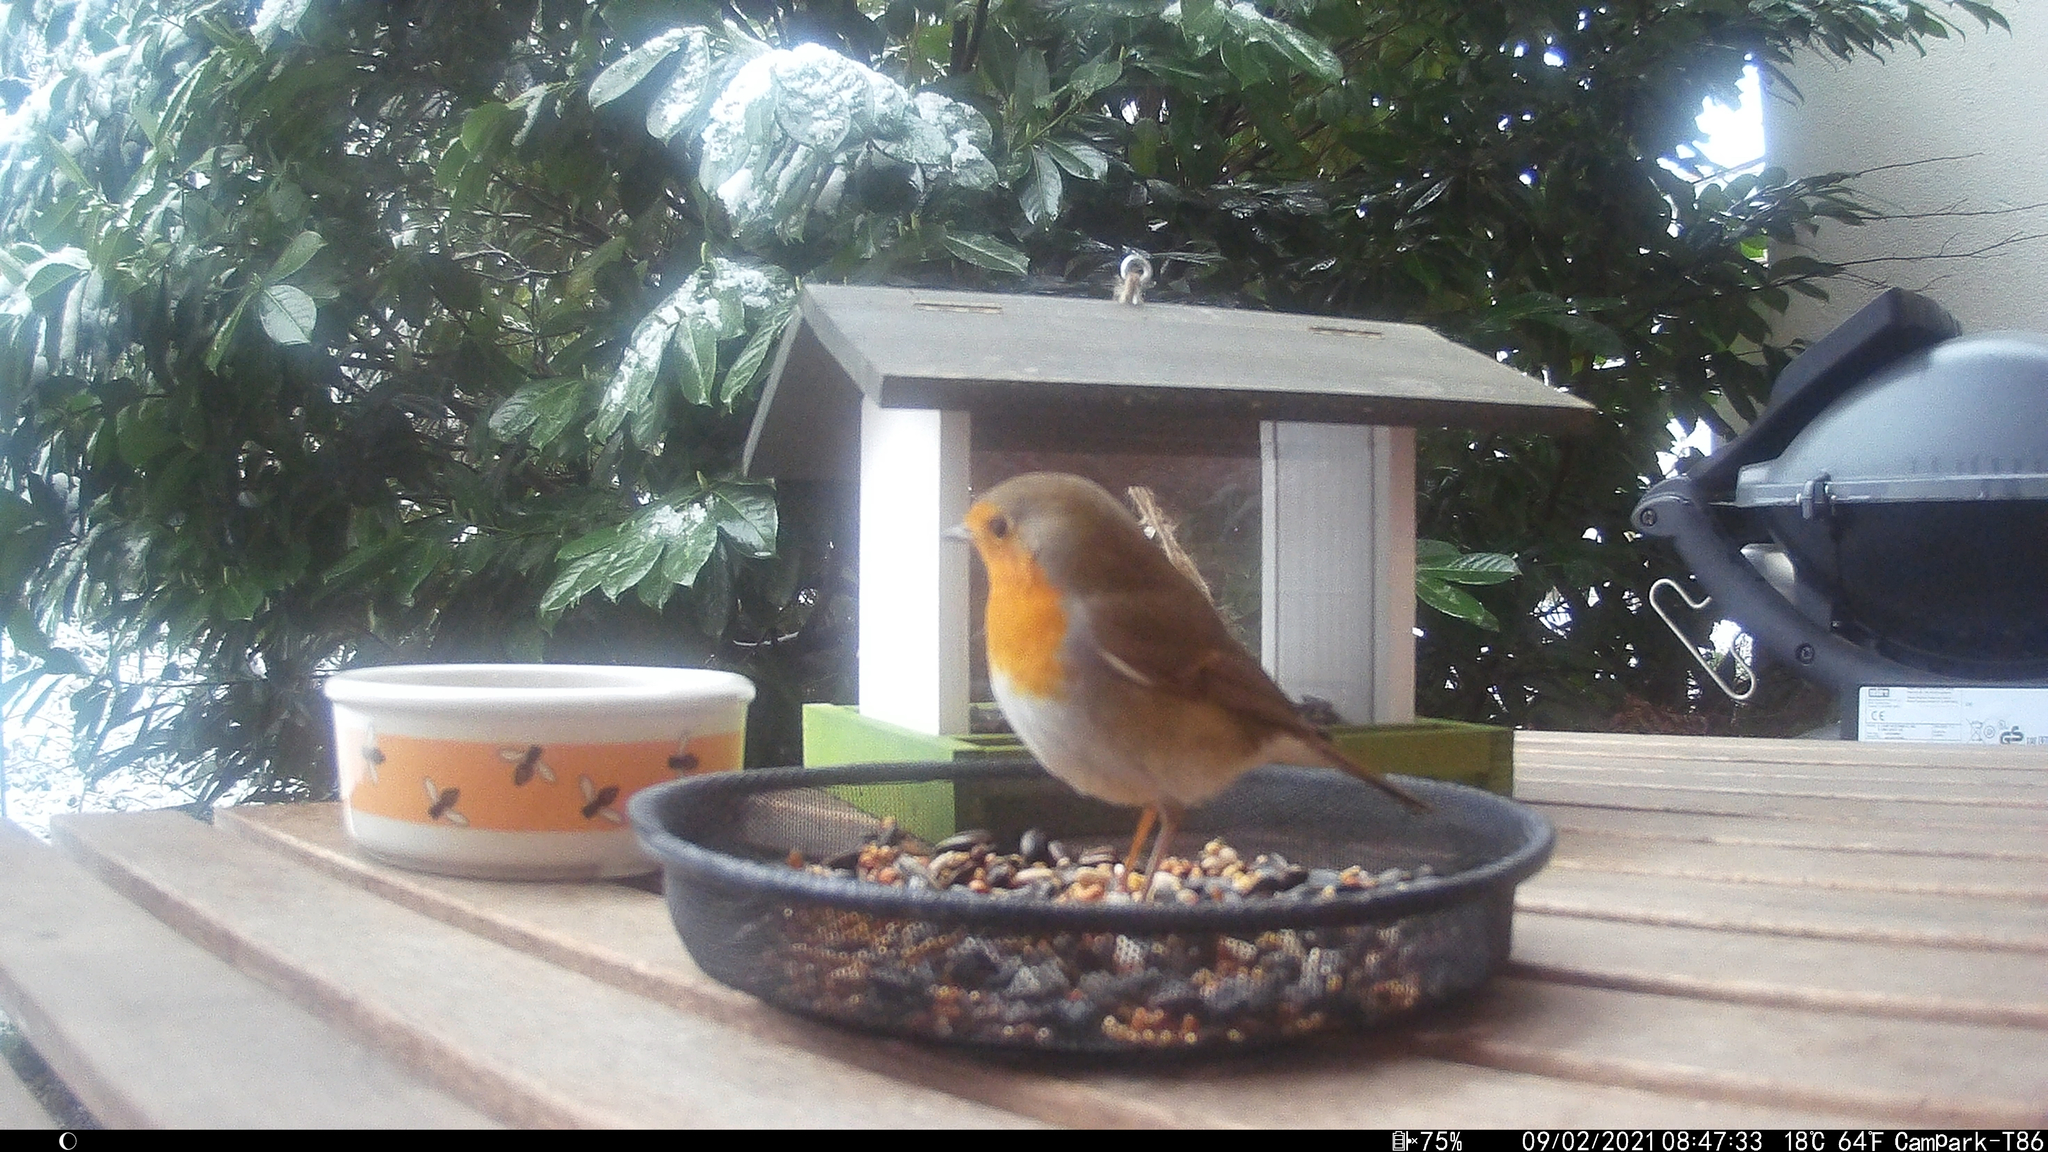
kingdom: Animalia
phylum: Chordata
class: Aves
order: Passeriformes
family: Muscicapidae
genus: Erithacus
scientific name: Erithacus rubecula
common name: European robin
